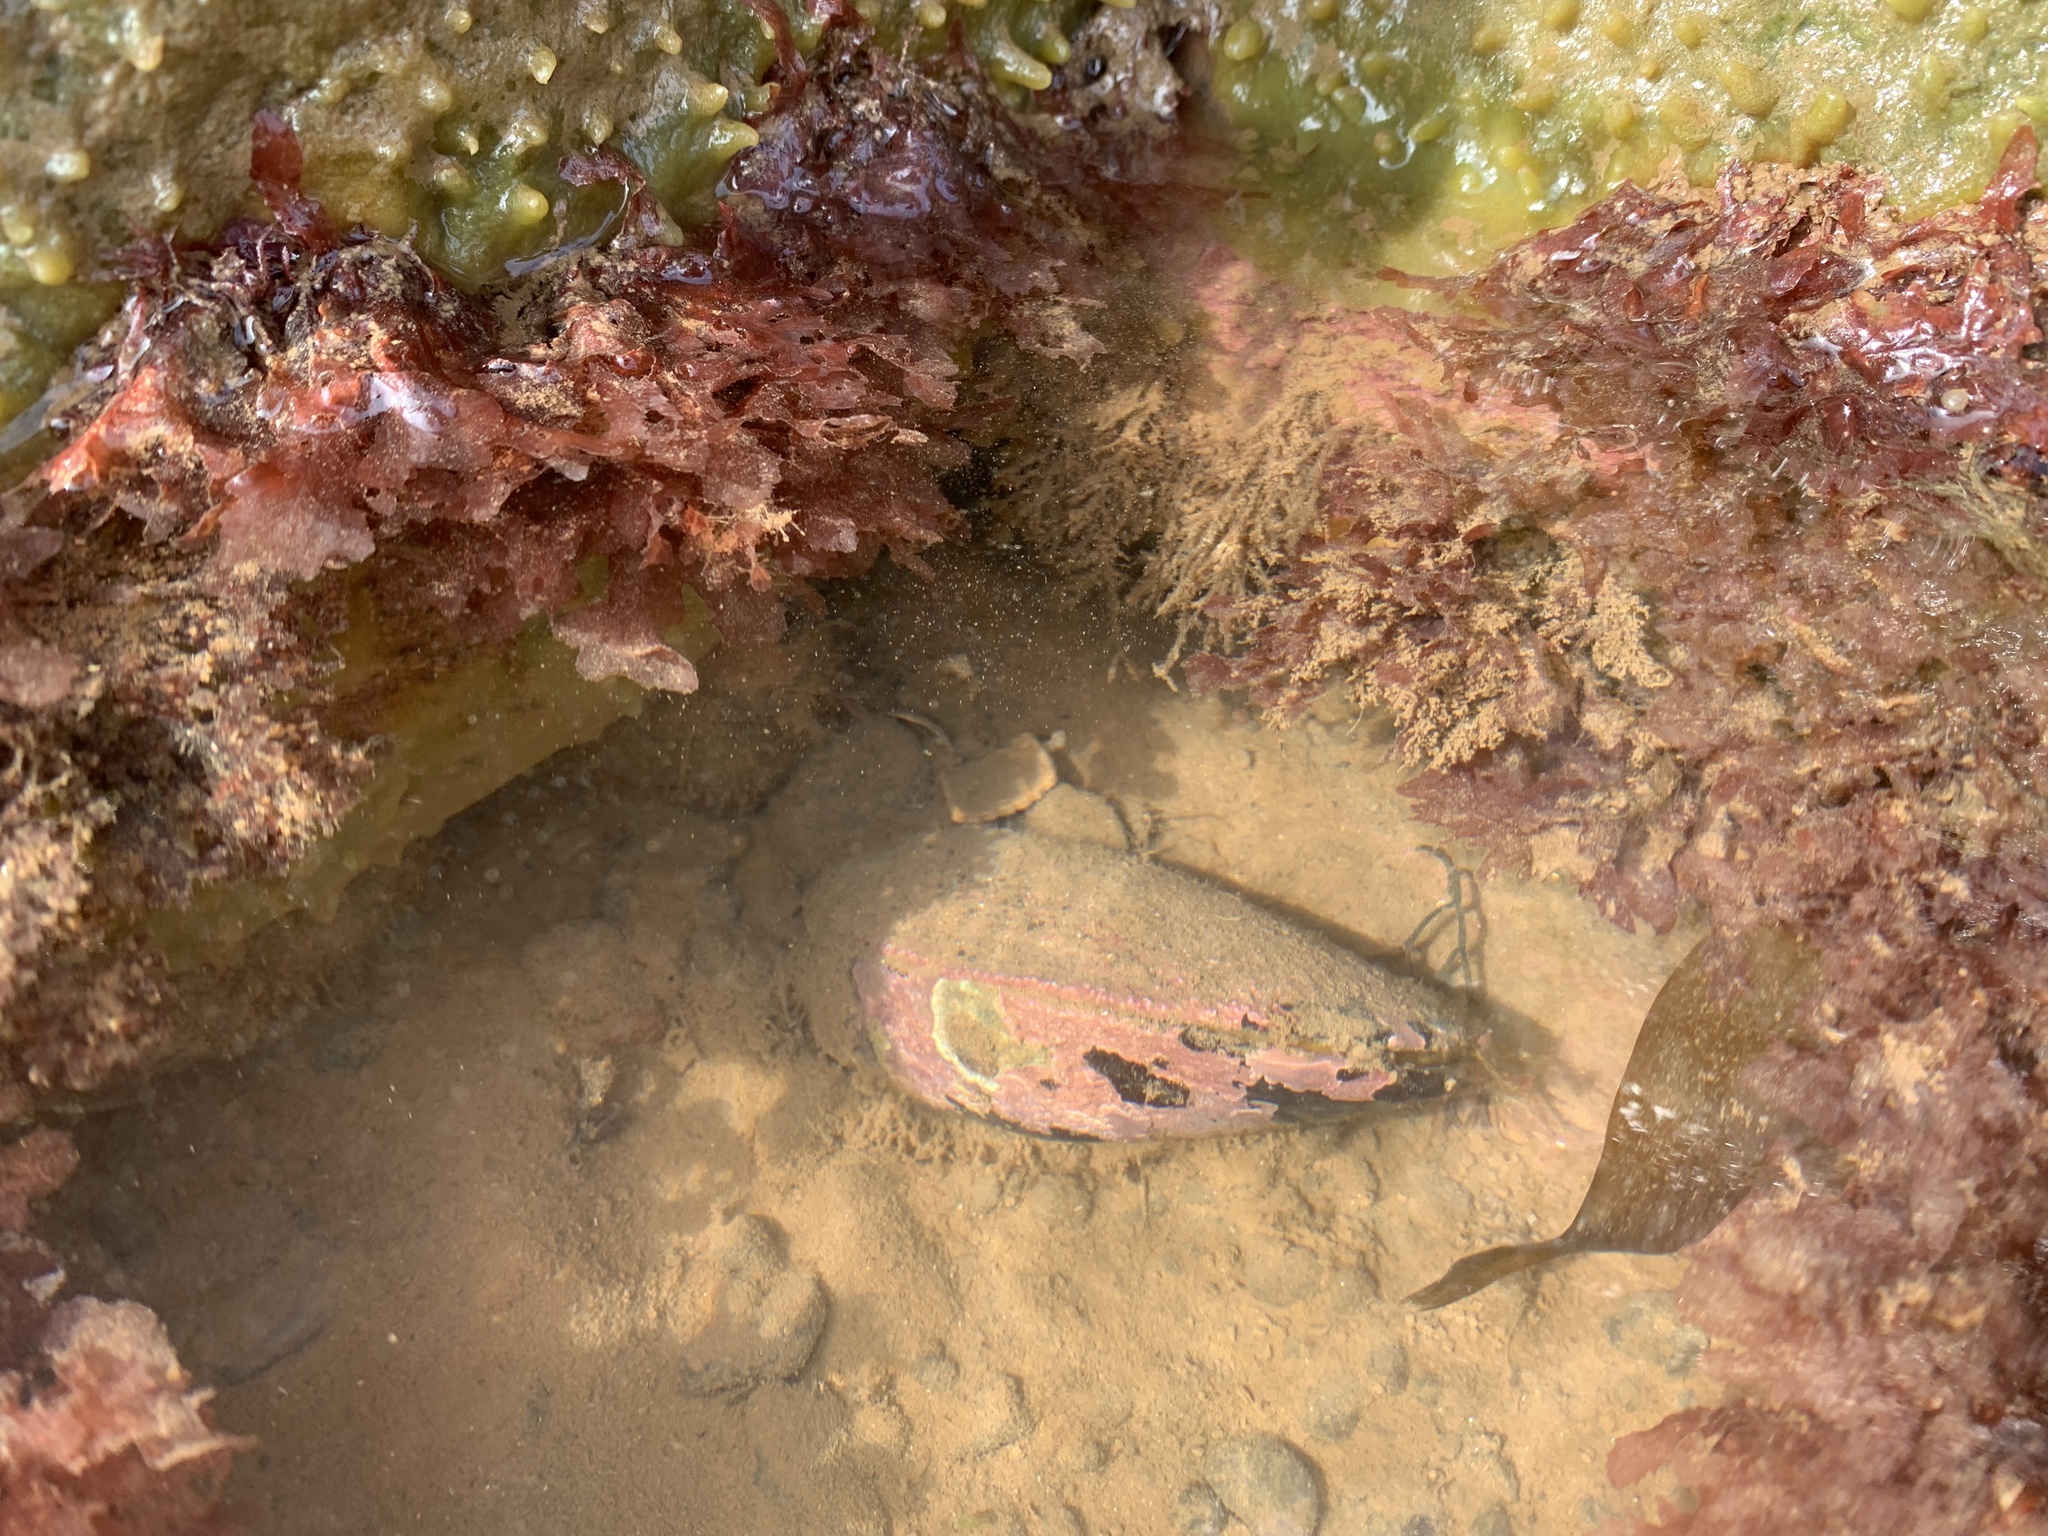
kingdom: Animalia
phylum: Mollusca
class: Bivalvia
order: Mytilida
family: Mytilidae
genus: Modiolus
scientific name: Modiolus modiolus
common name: Horse-mussel
